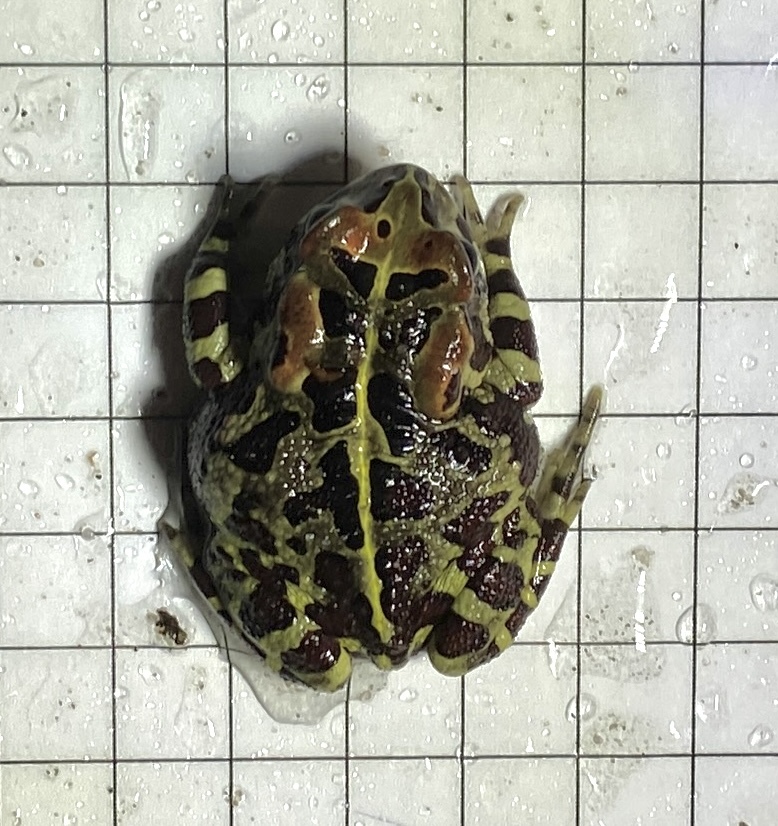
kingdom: Animalia
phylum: Chordata
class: Amphibia
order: Anura
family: Bufonidae
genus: Sclerophrys
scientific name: Sclerophrys pantherina
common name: Panther toad
